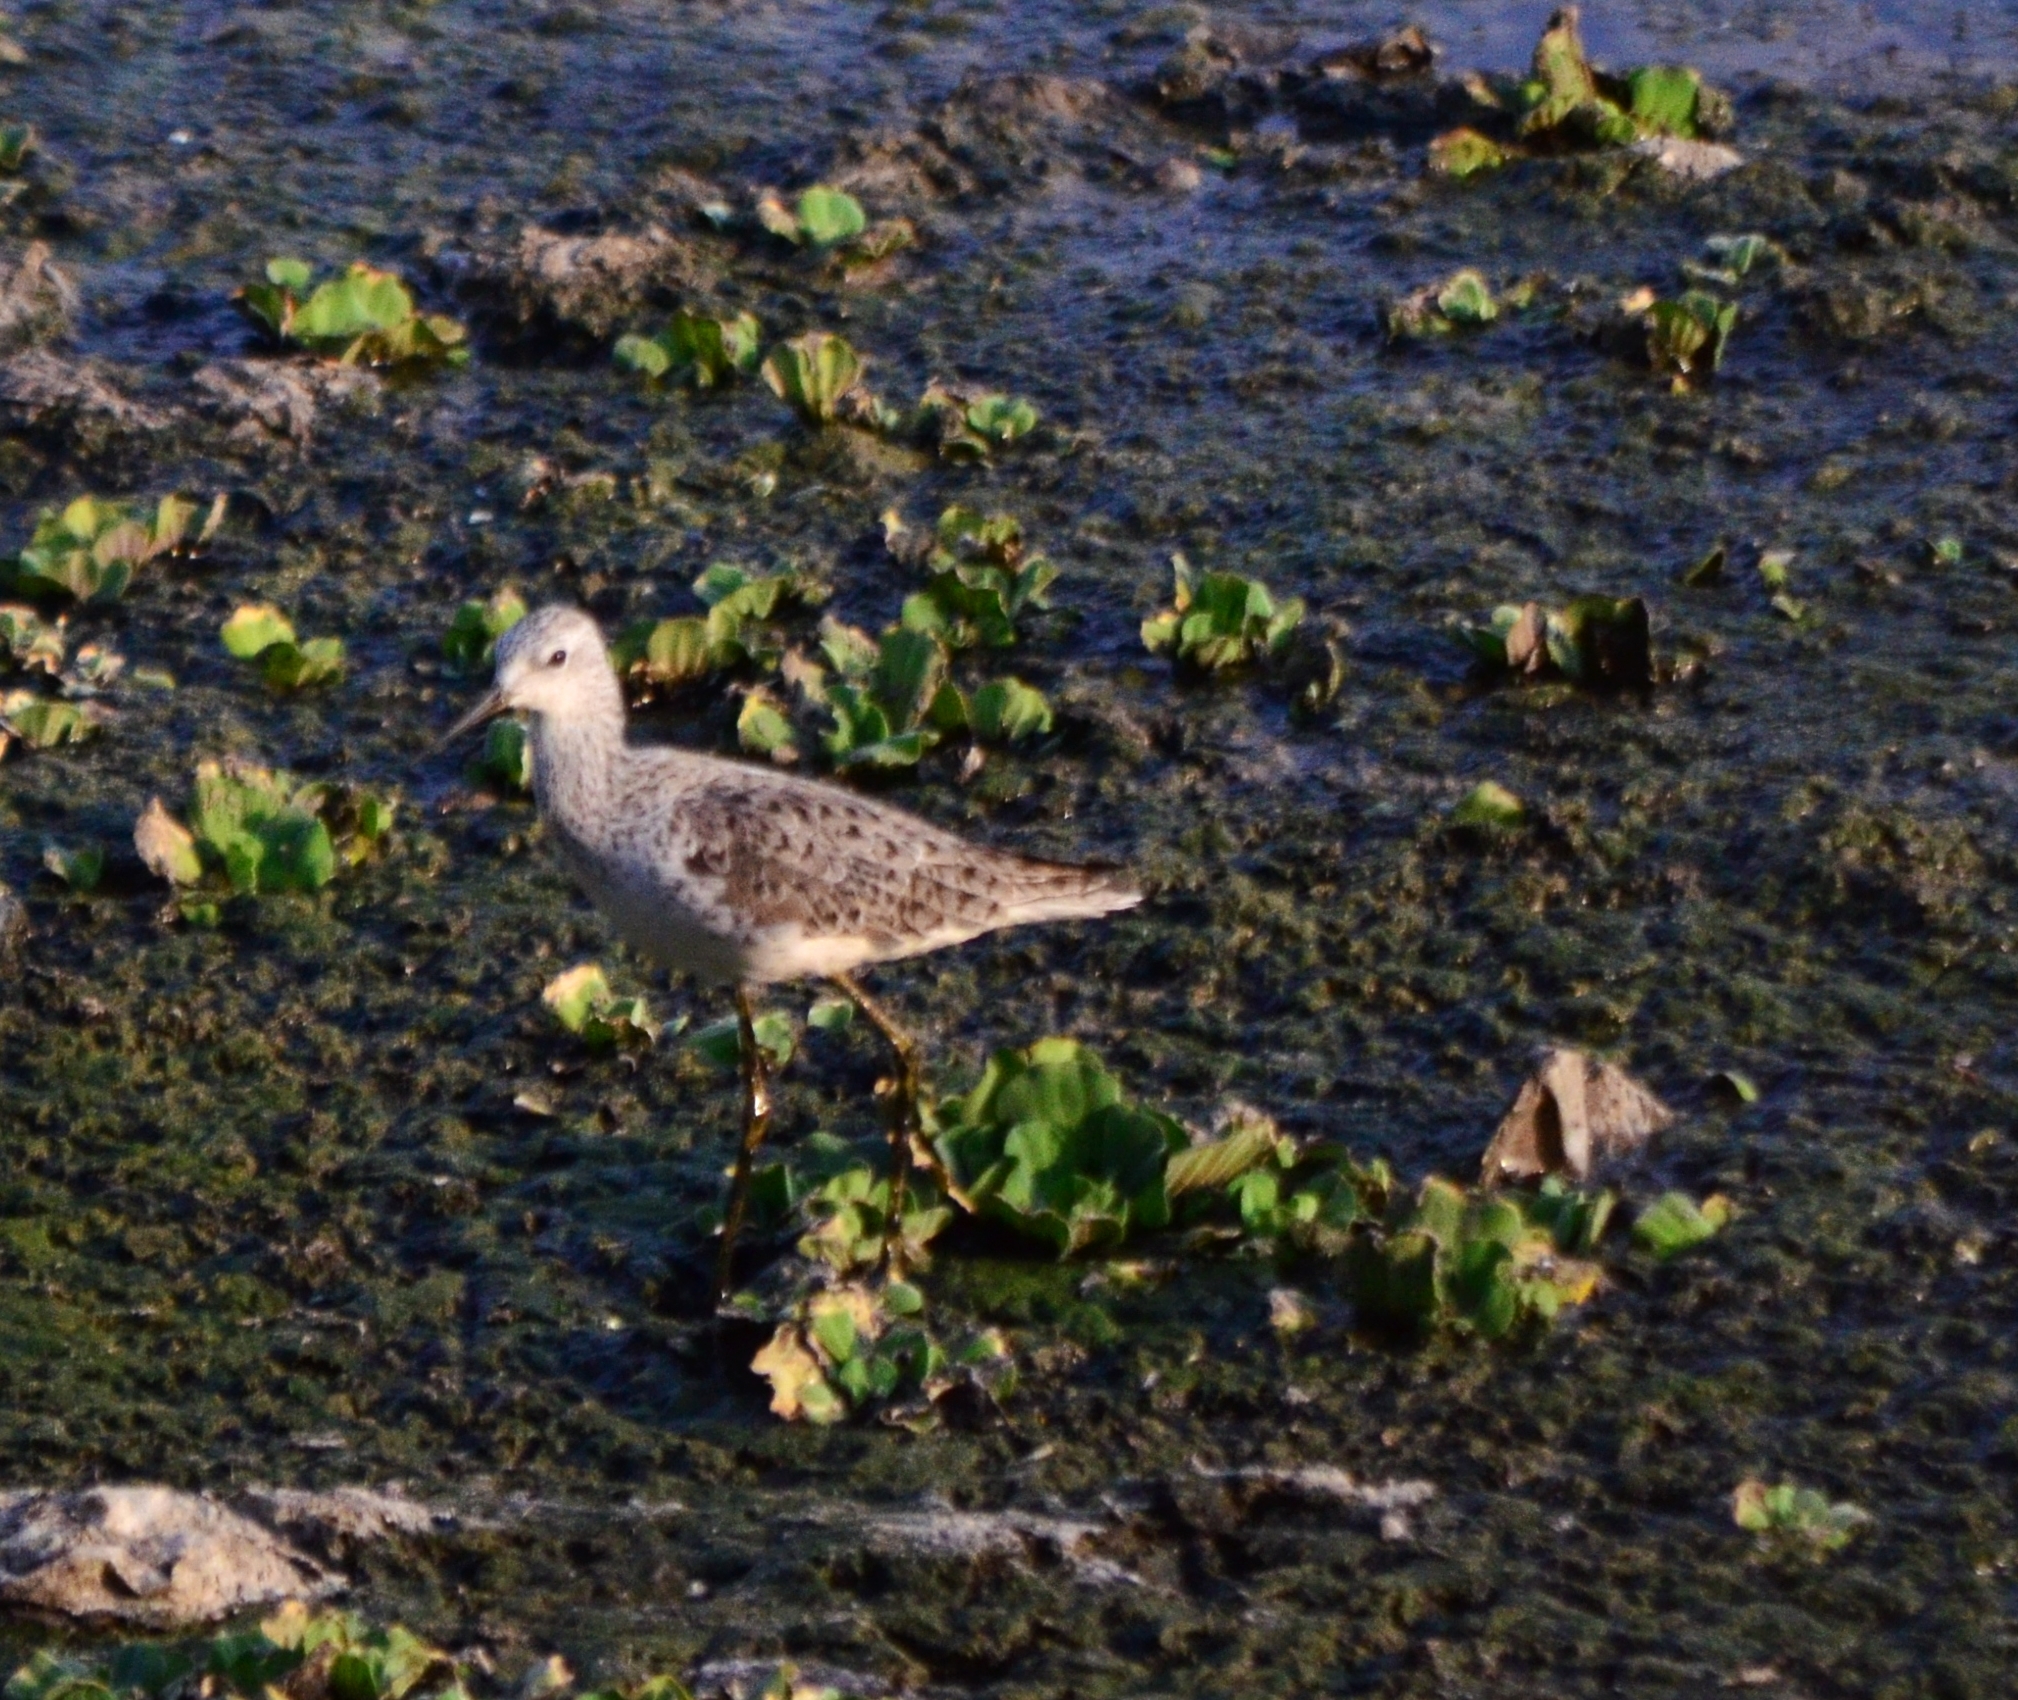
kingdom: Animalia
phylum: Chordata
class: Aves
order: Charadriiformes
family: Scolopacidae
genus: Tringa
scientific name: Tringa stagnatilis
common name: Marsh sandpiper
